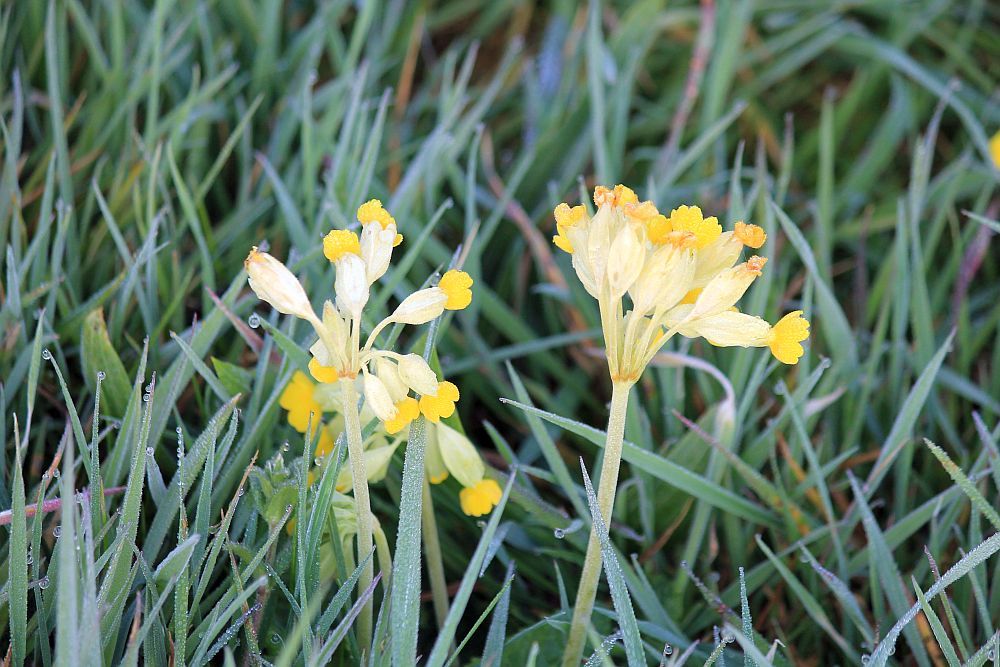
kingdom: Plantae
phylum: Tracheophyta
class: Magnoliopsida
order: Ericales
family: Primulaceae
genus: Primula
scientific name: Primula veris
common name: Cowslip
